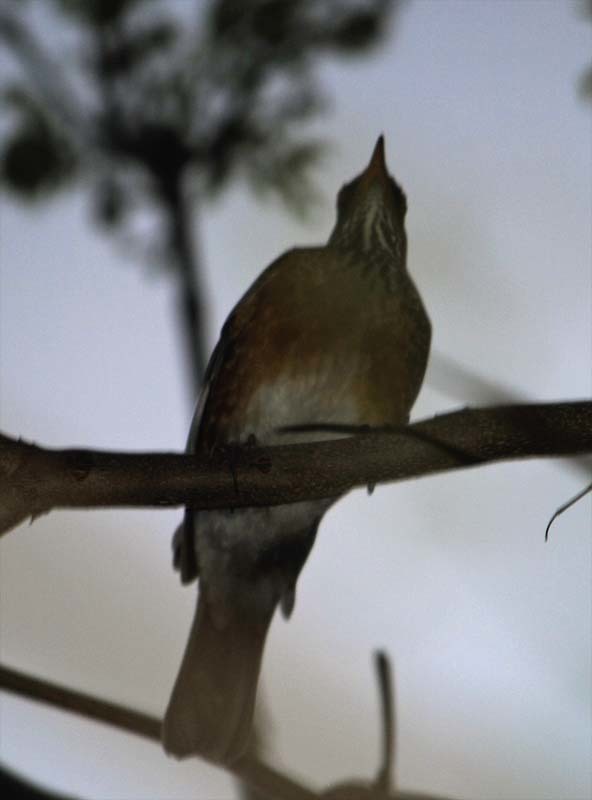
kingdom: Animalia
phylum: Chordata
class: Aves
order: Passeriformes
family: Turdidae
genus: Turdus
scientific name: Turdus rufopalliatus
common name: Rufous-backed robin
